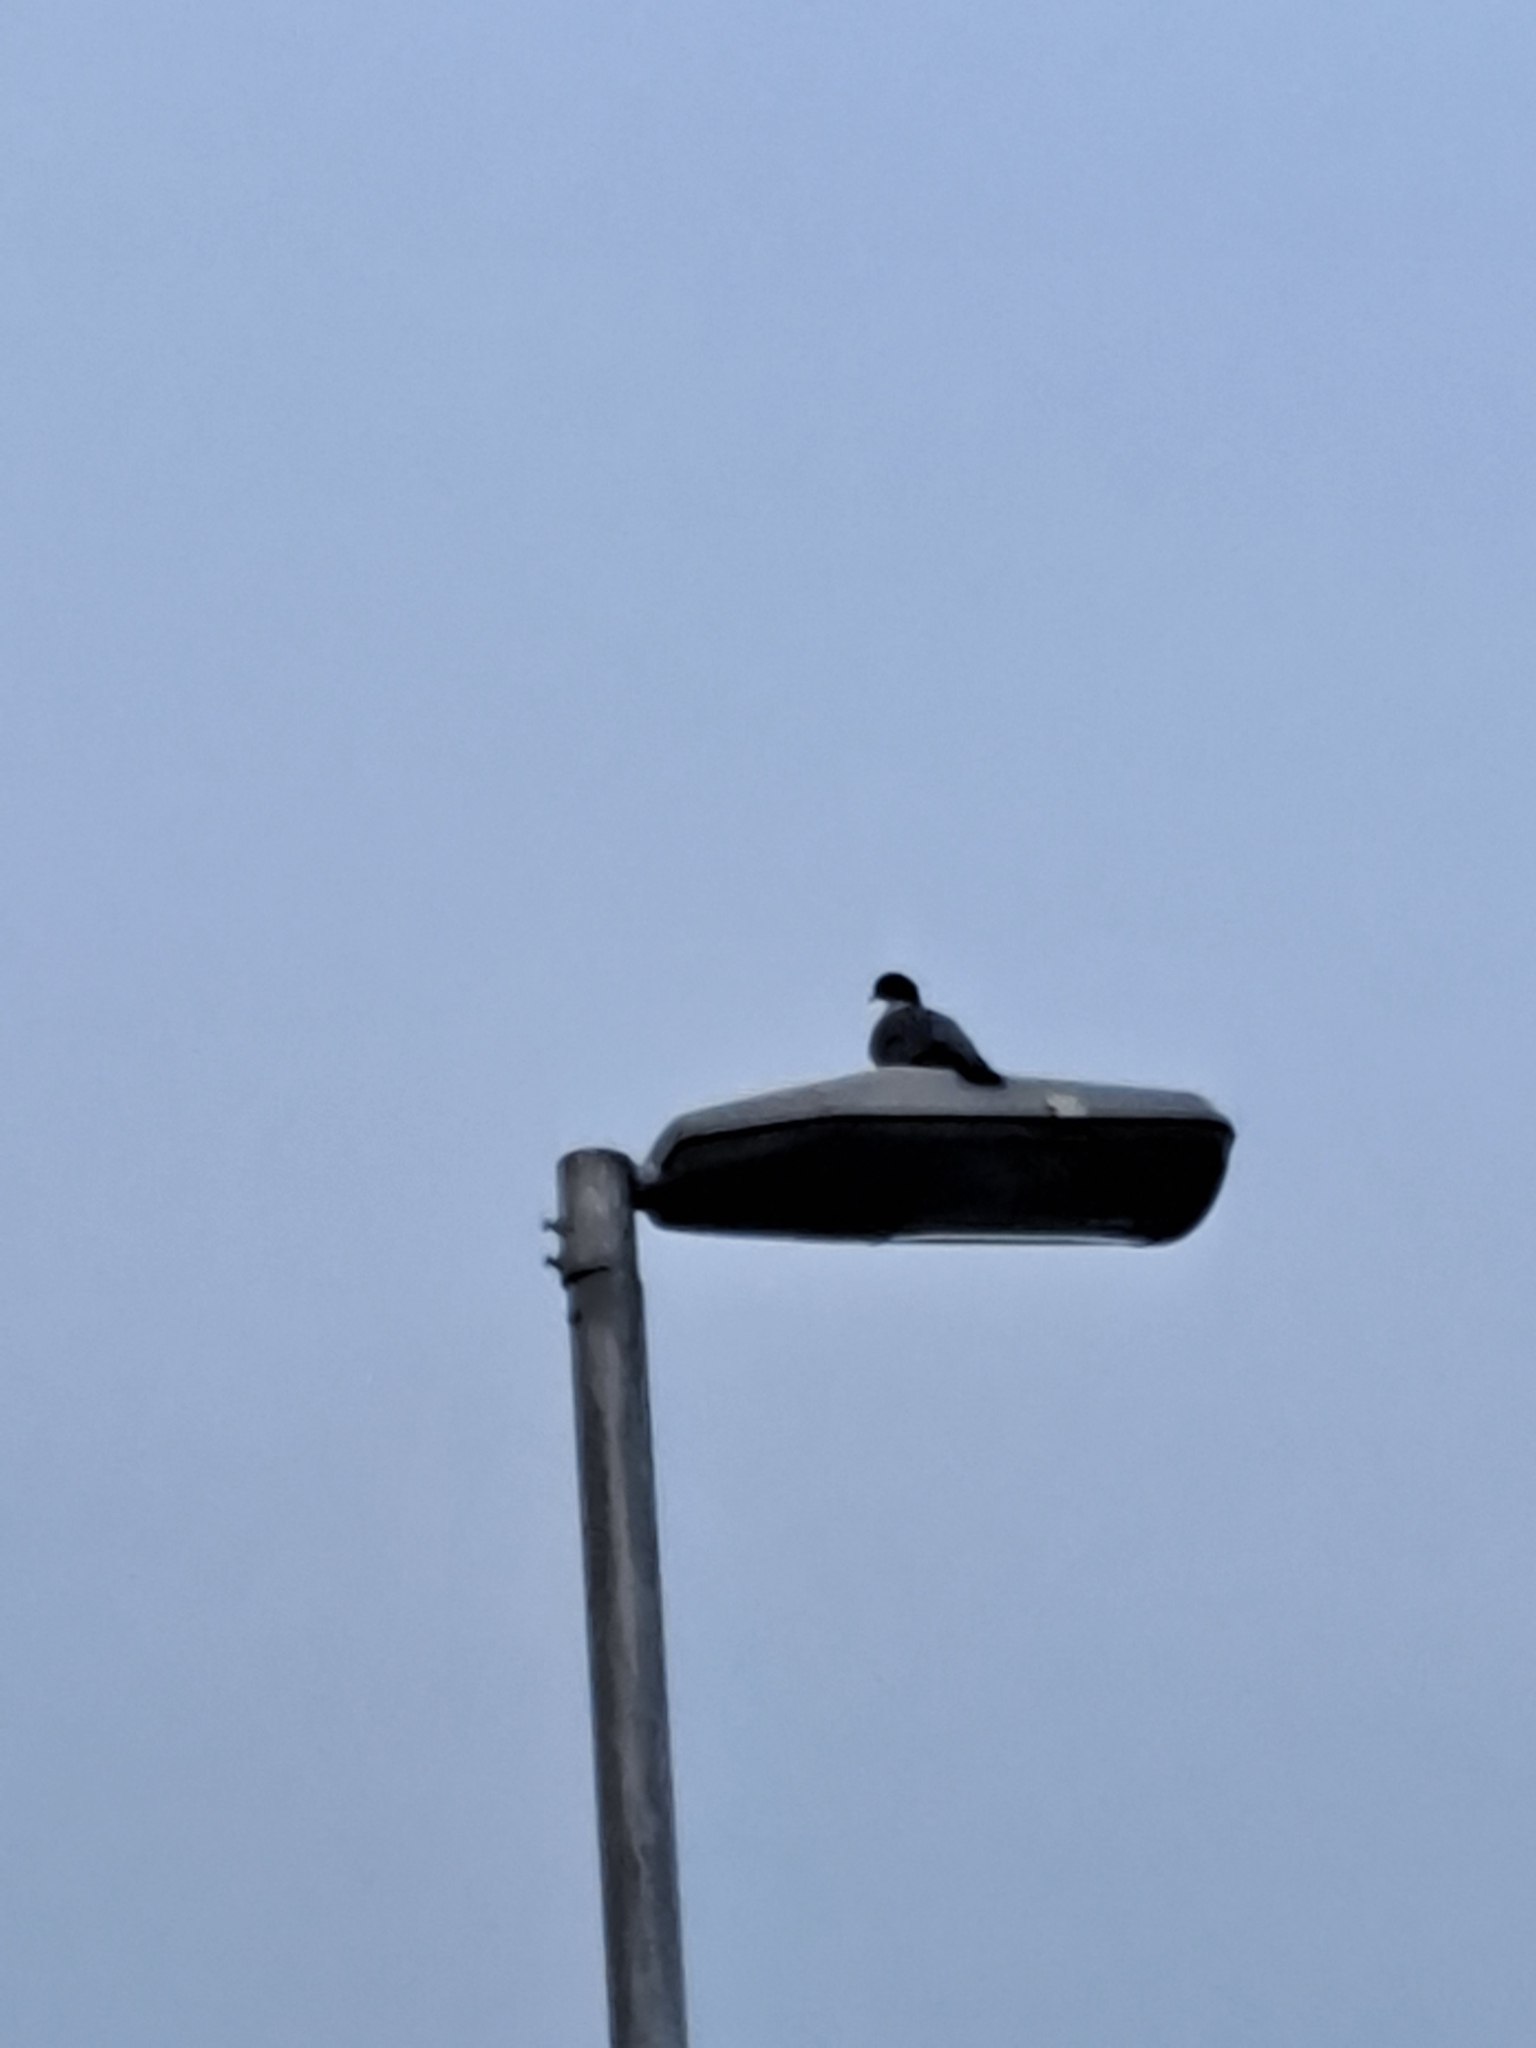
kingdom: Animalia
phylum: Chordata
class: Aves
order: Columbiformes
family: Columbidae
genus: Columba
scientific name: Columba palumbus
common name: Common wood pigeon
